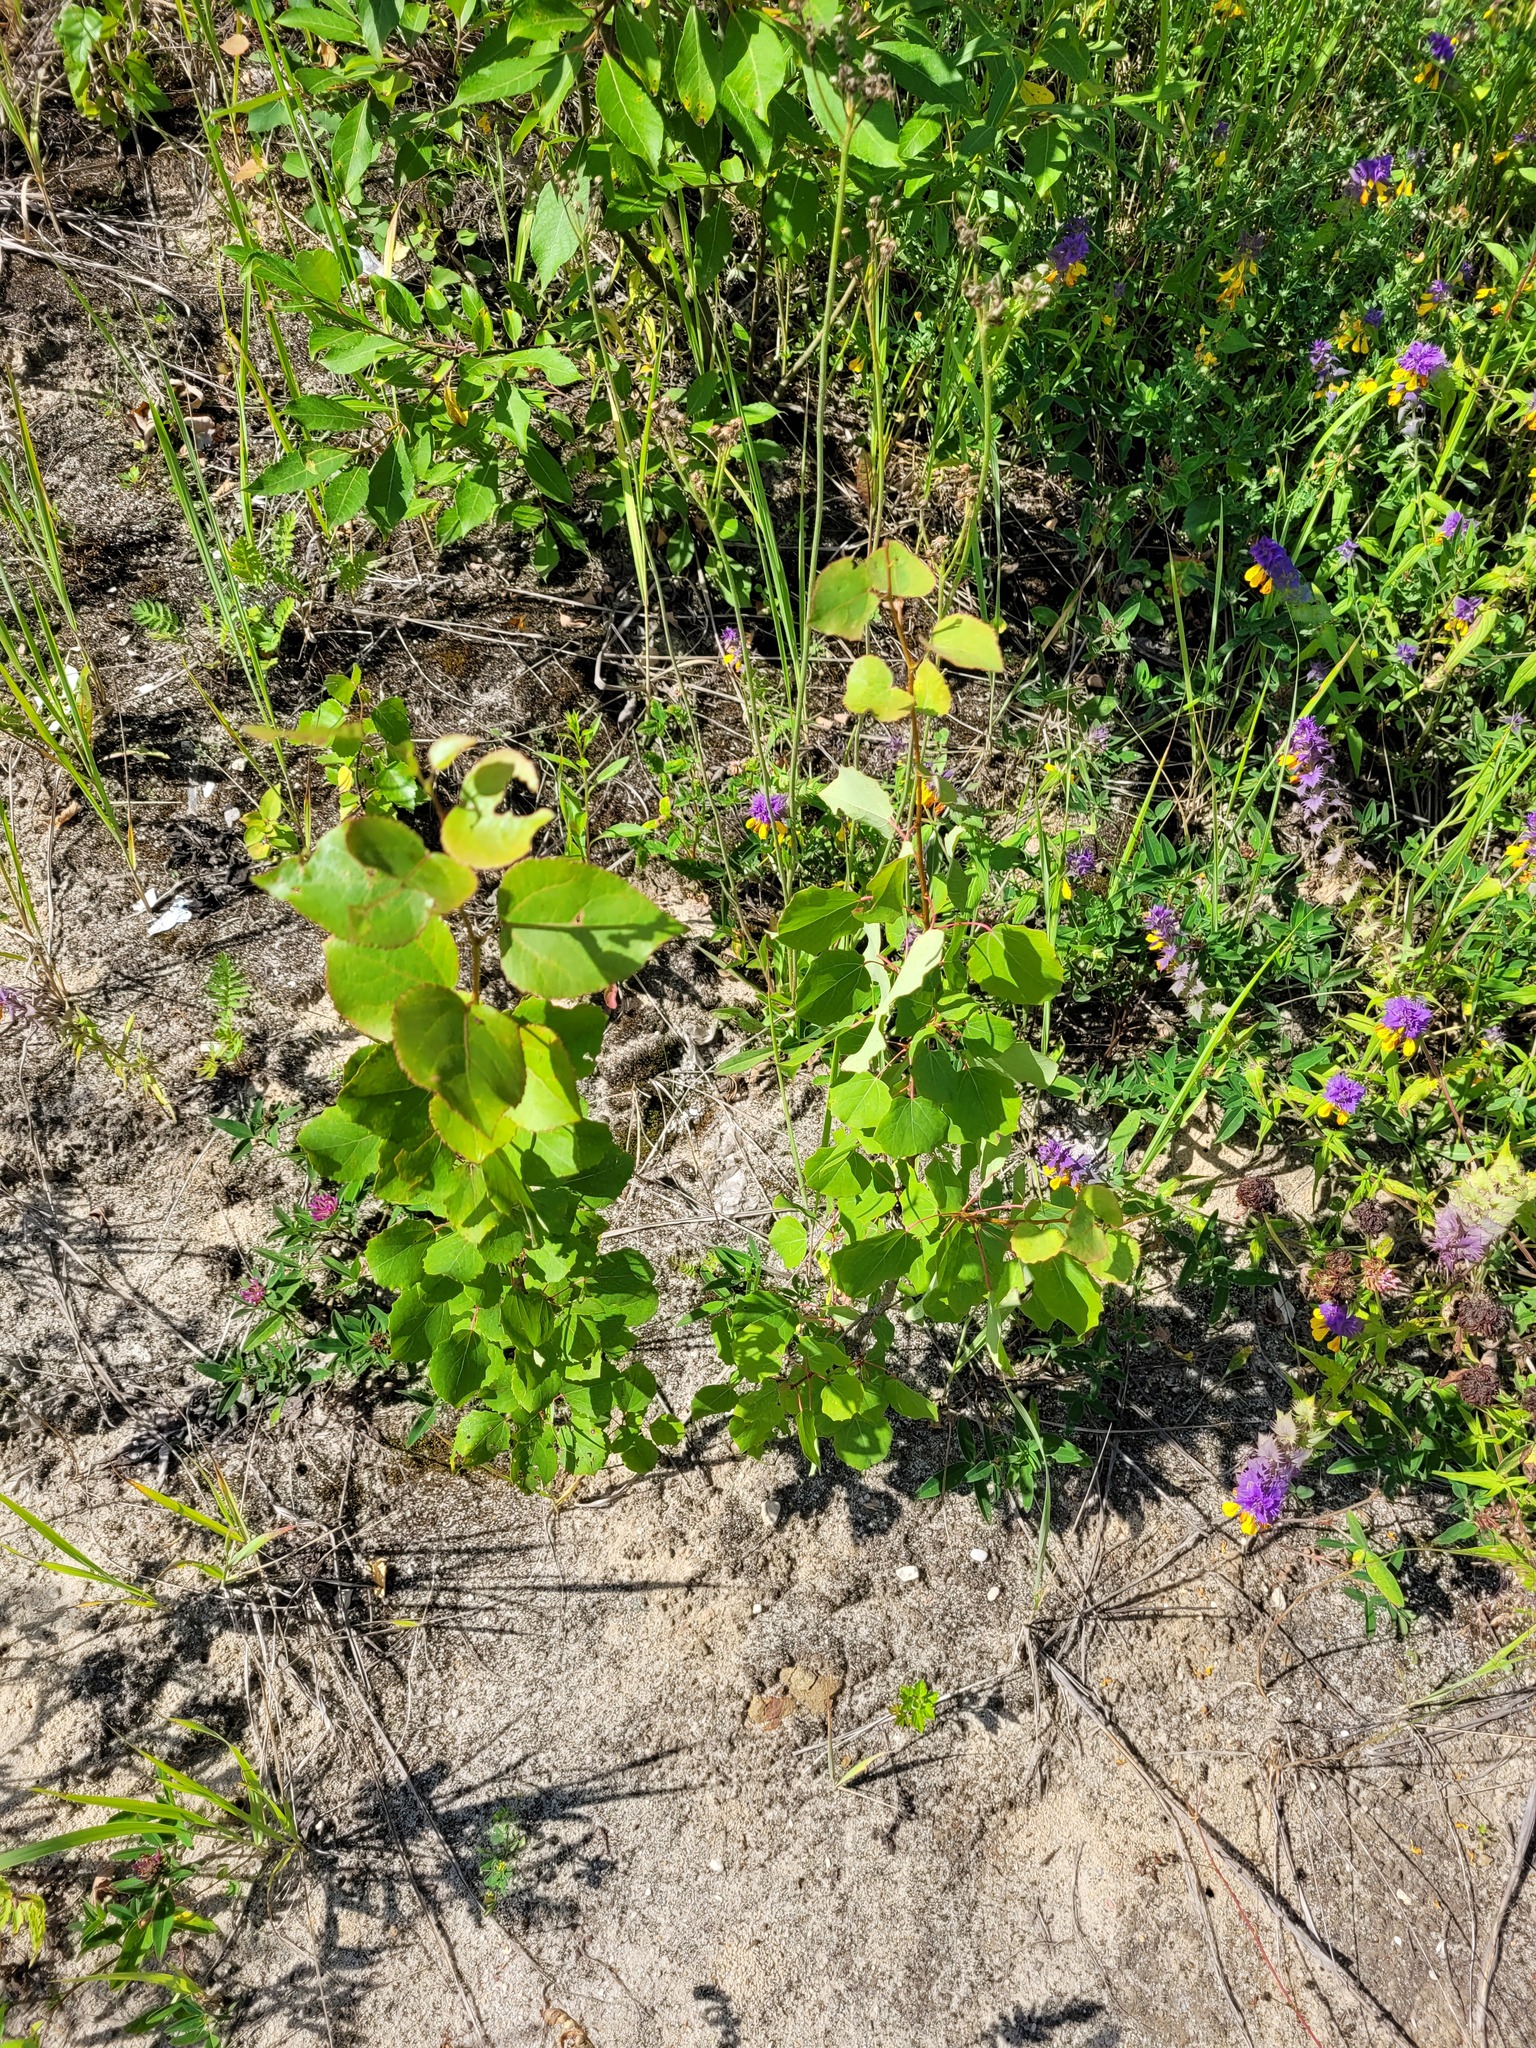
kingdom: Plantae
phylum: Tracheophyta
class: Magnoliopsida
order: Malpighiales
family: Salicaceae
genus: Populus
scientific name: Populus tremula
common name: European aspen
